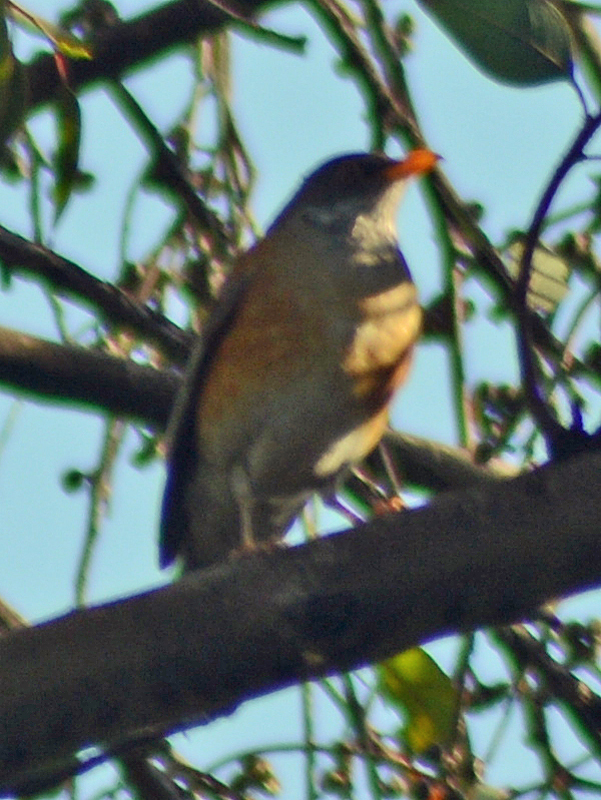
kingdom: Animalia
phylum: Chordata
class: Aves
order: Passeriformes
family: Turdidae
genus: Turdus
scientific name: Turdus rufopalliatus
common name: Rufous-backed robin
